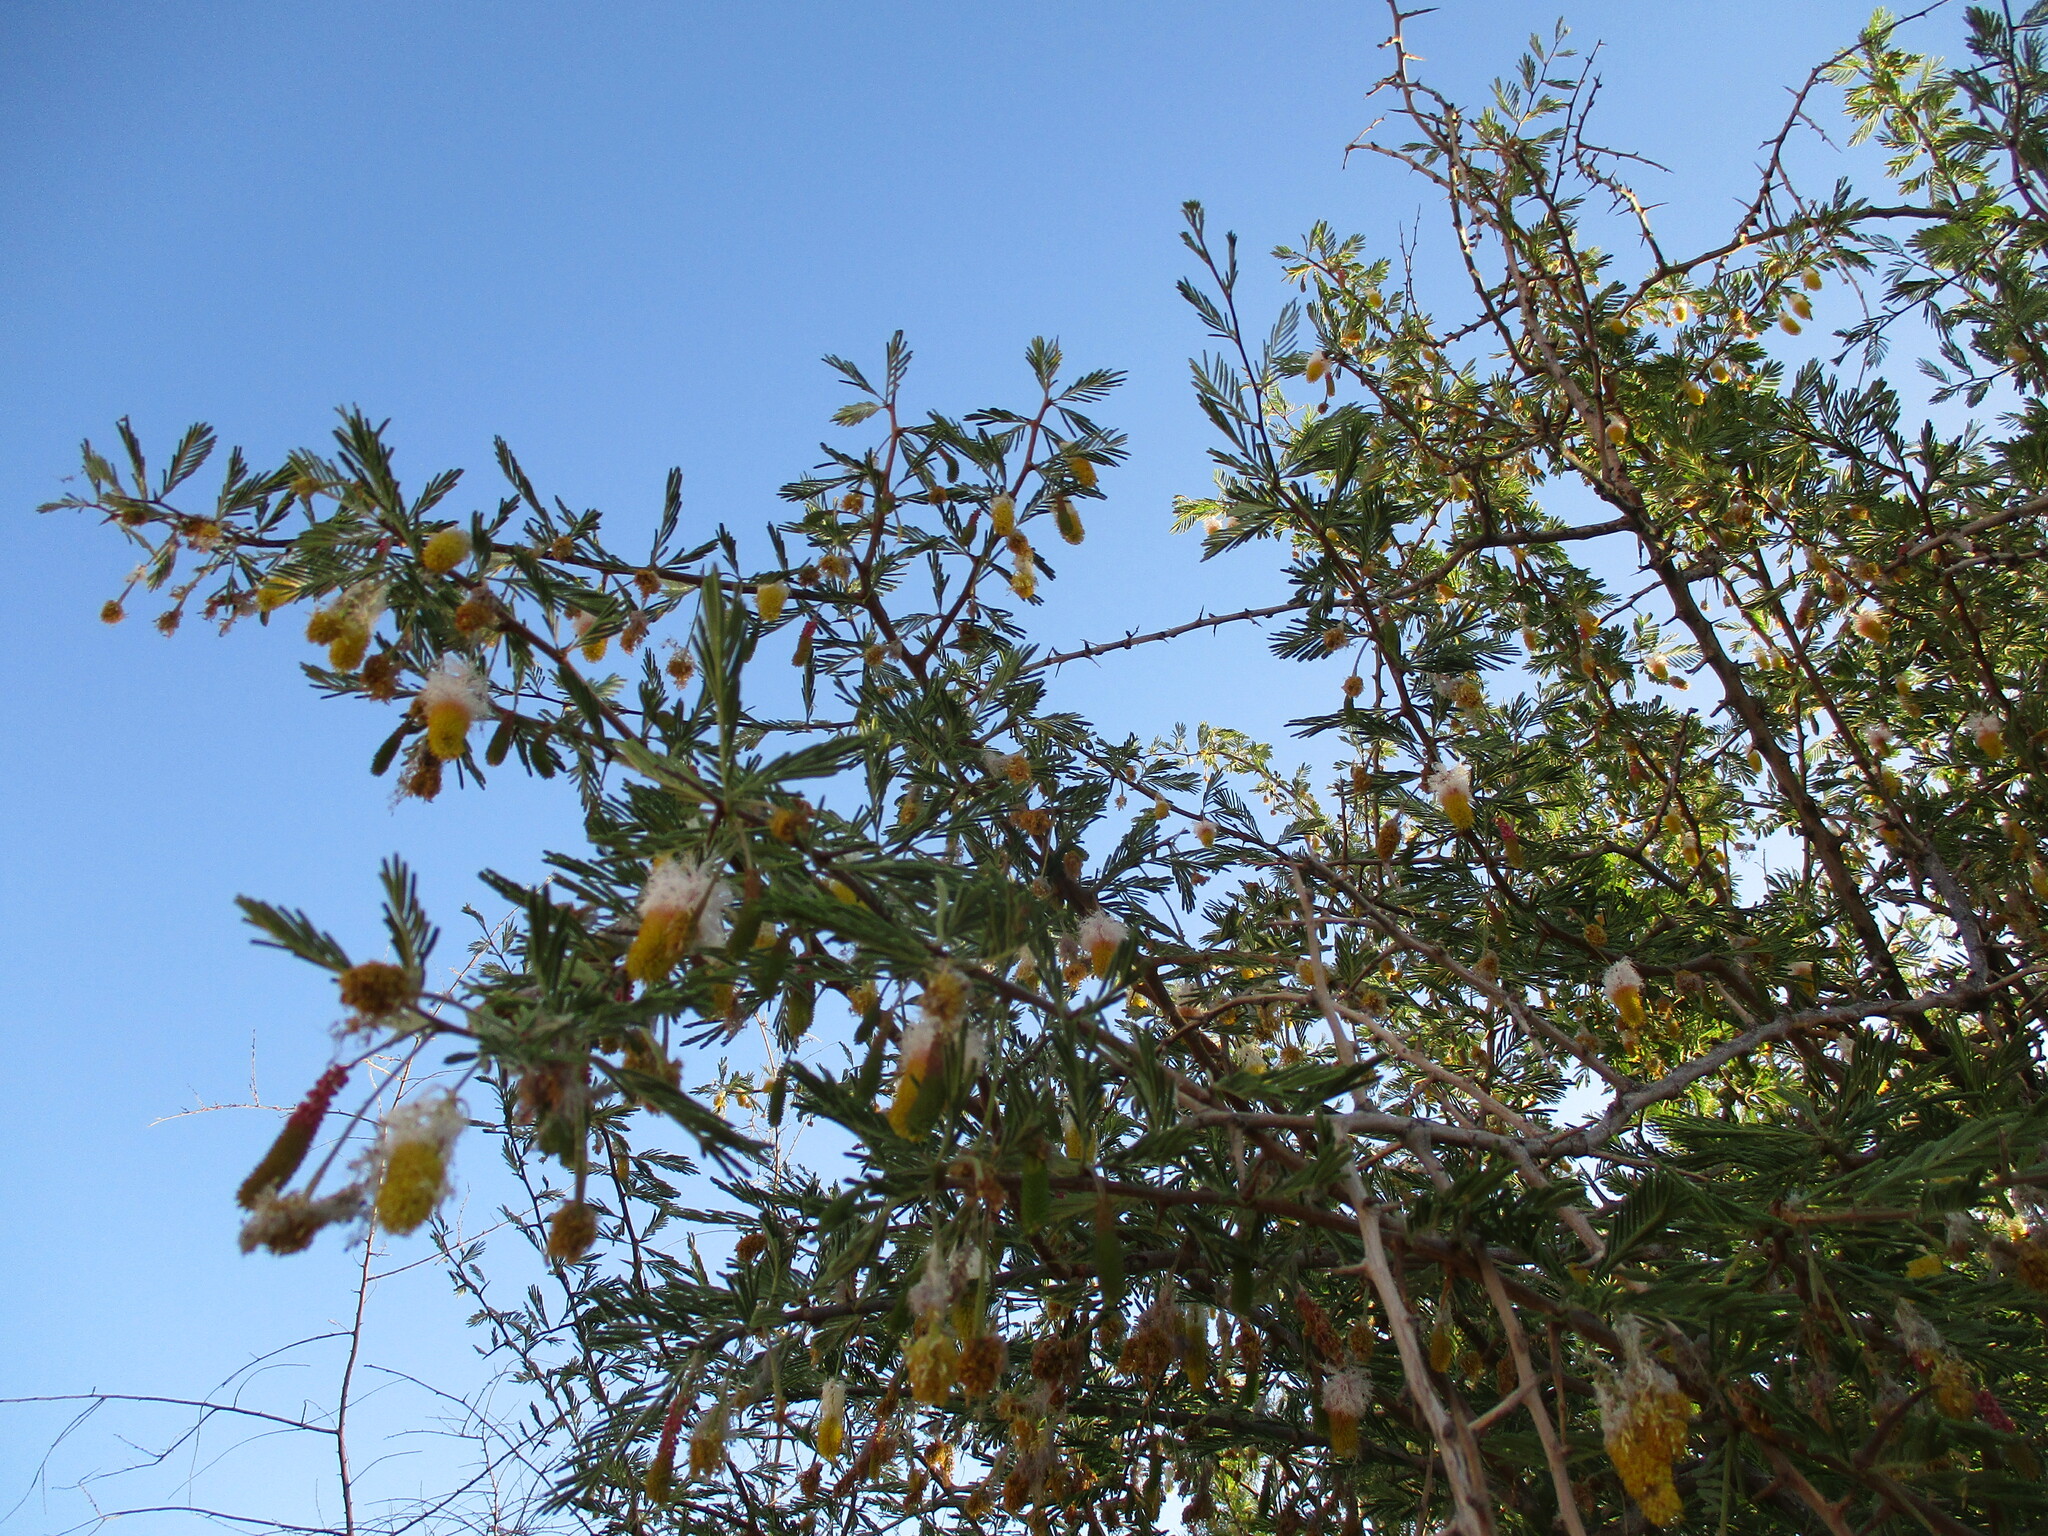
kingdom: Plantae
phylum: Tracheophyta
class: Magnoliopsida
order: Fabales
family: Fabaceae
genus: Dichrostachys
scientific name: Dichrostachys cinerea
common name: Sicklebush
